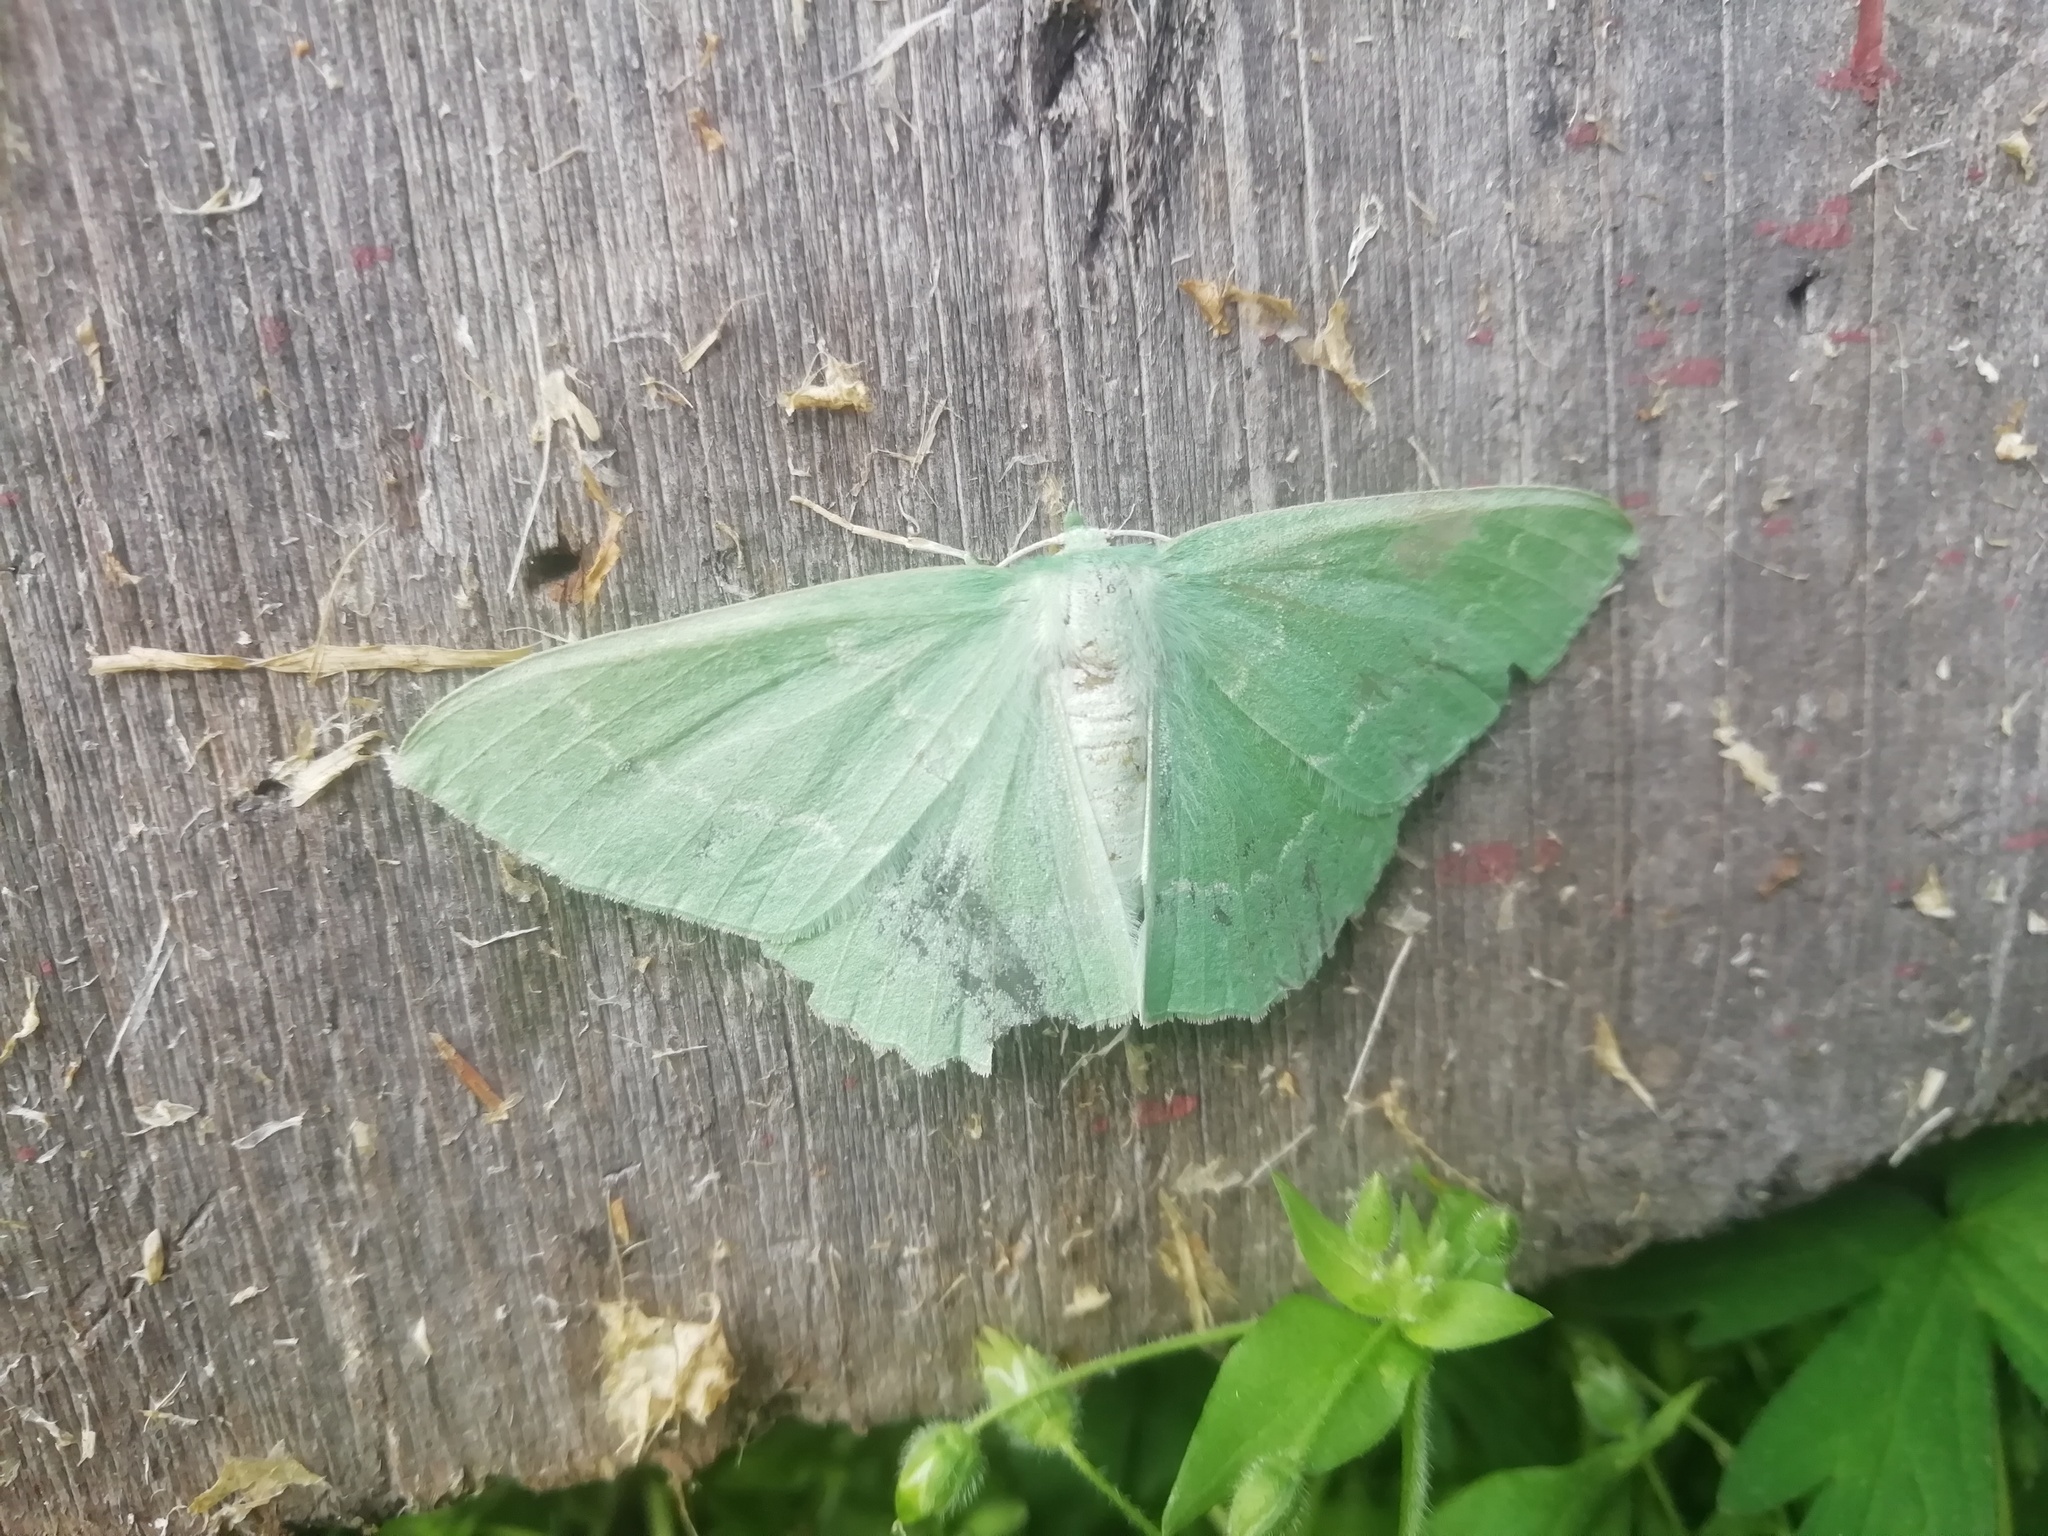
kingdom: Animalia
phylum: Arthropoda
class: Insecta
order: Lepidoptera
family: Geometridae
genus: Geometra
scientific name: Geometra papilionaria
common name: Large emerald
